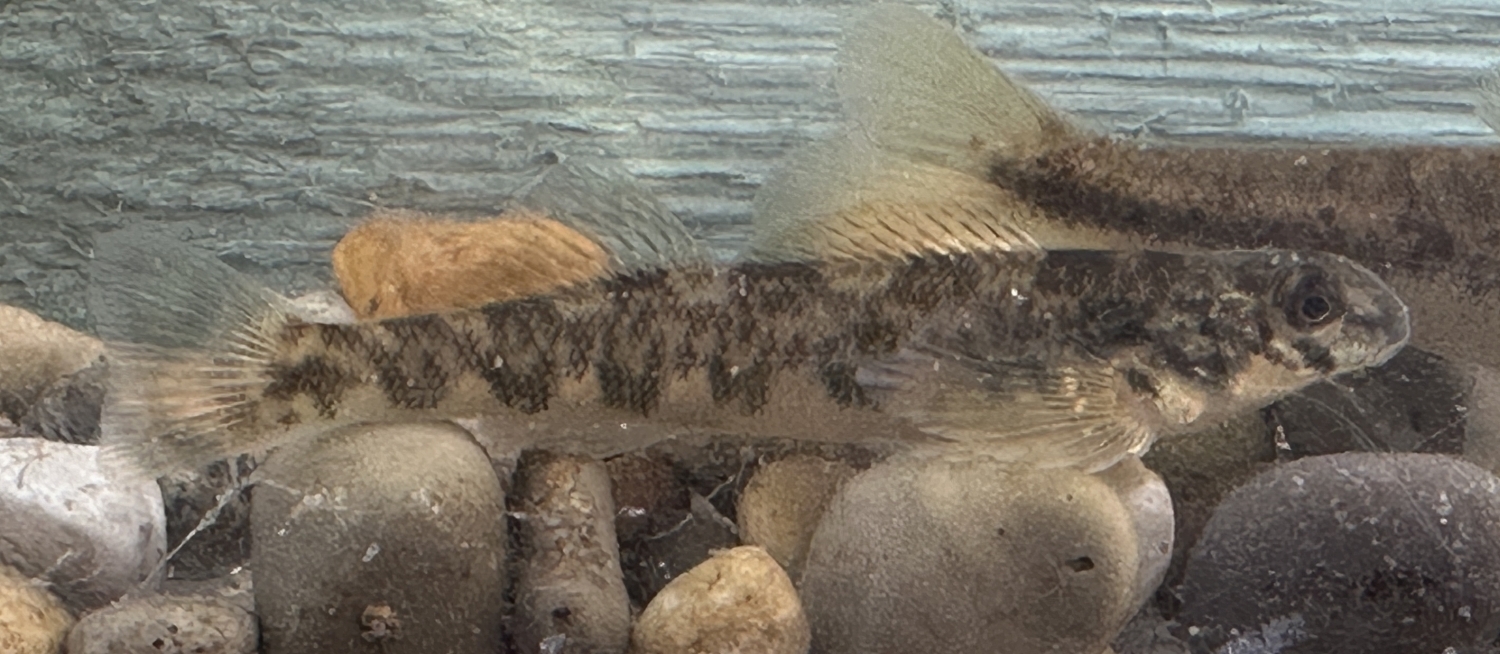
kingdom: Animalia
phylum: Chordata
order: Perciformes
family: Percidae
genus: Etheostoma
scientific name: Etheostoma blennioides
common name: Greenside darter
